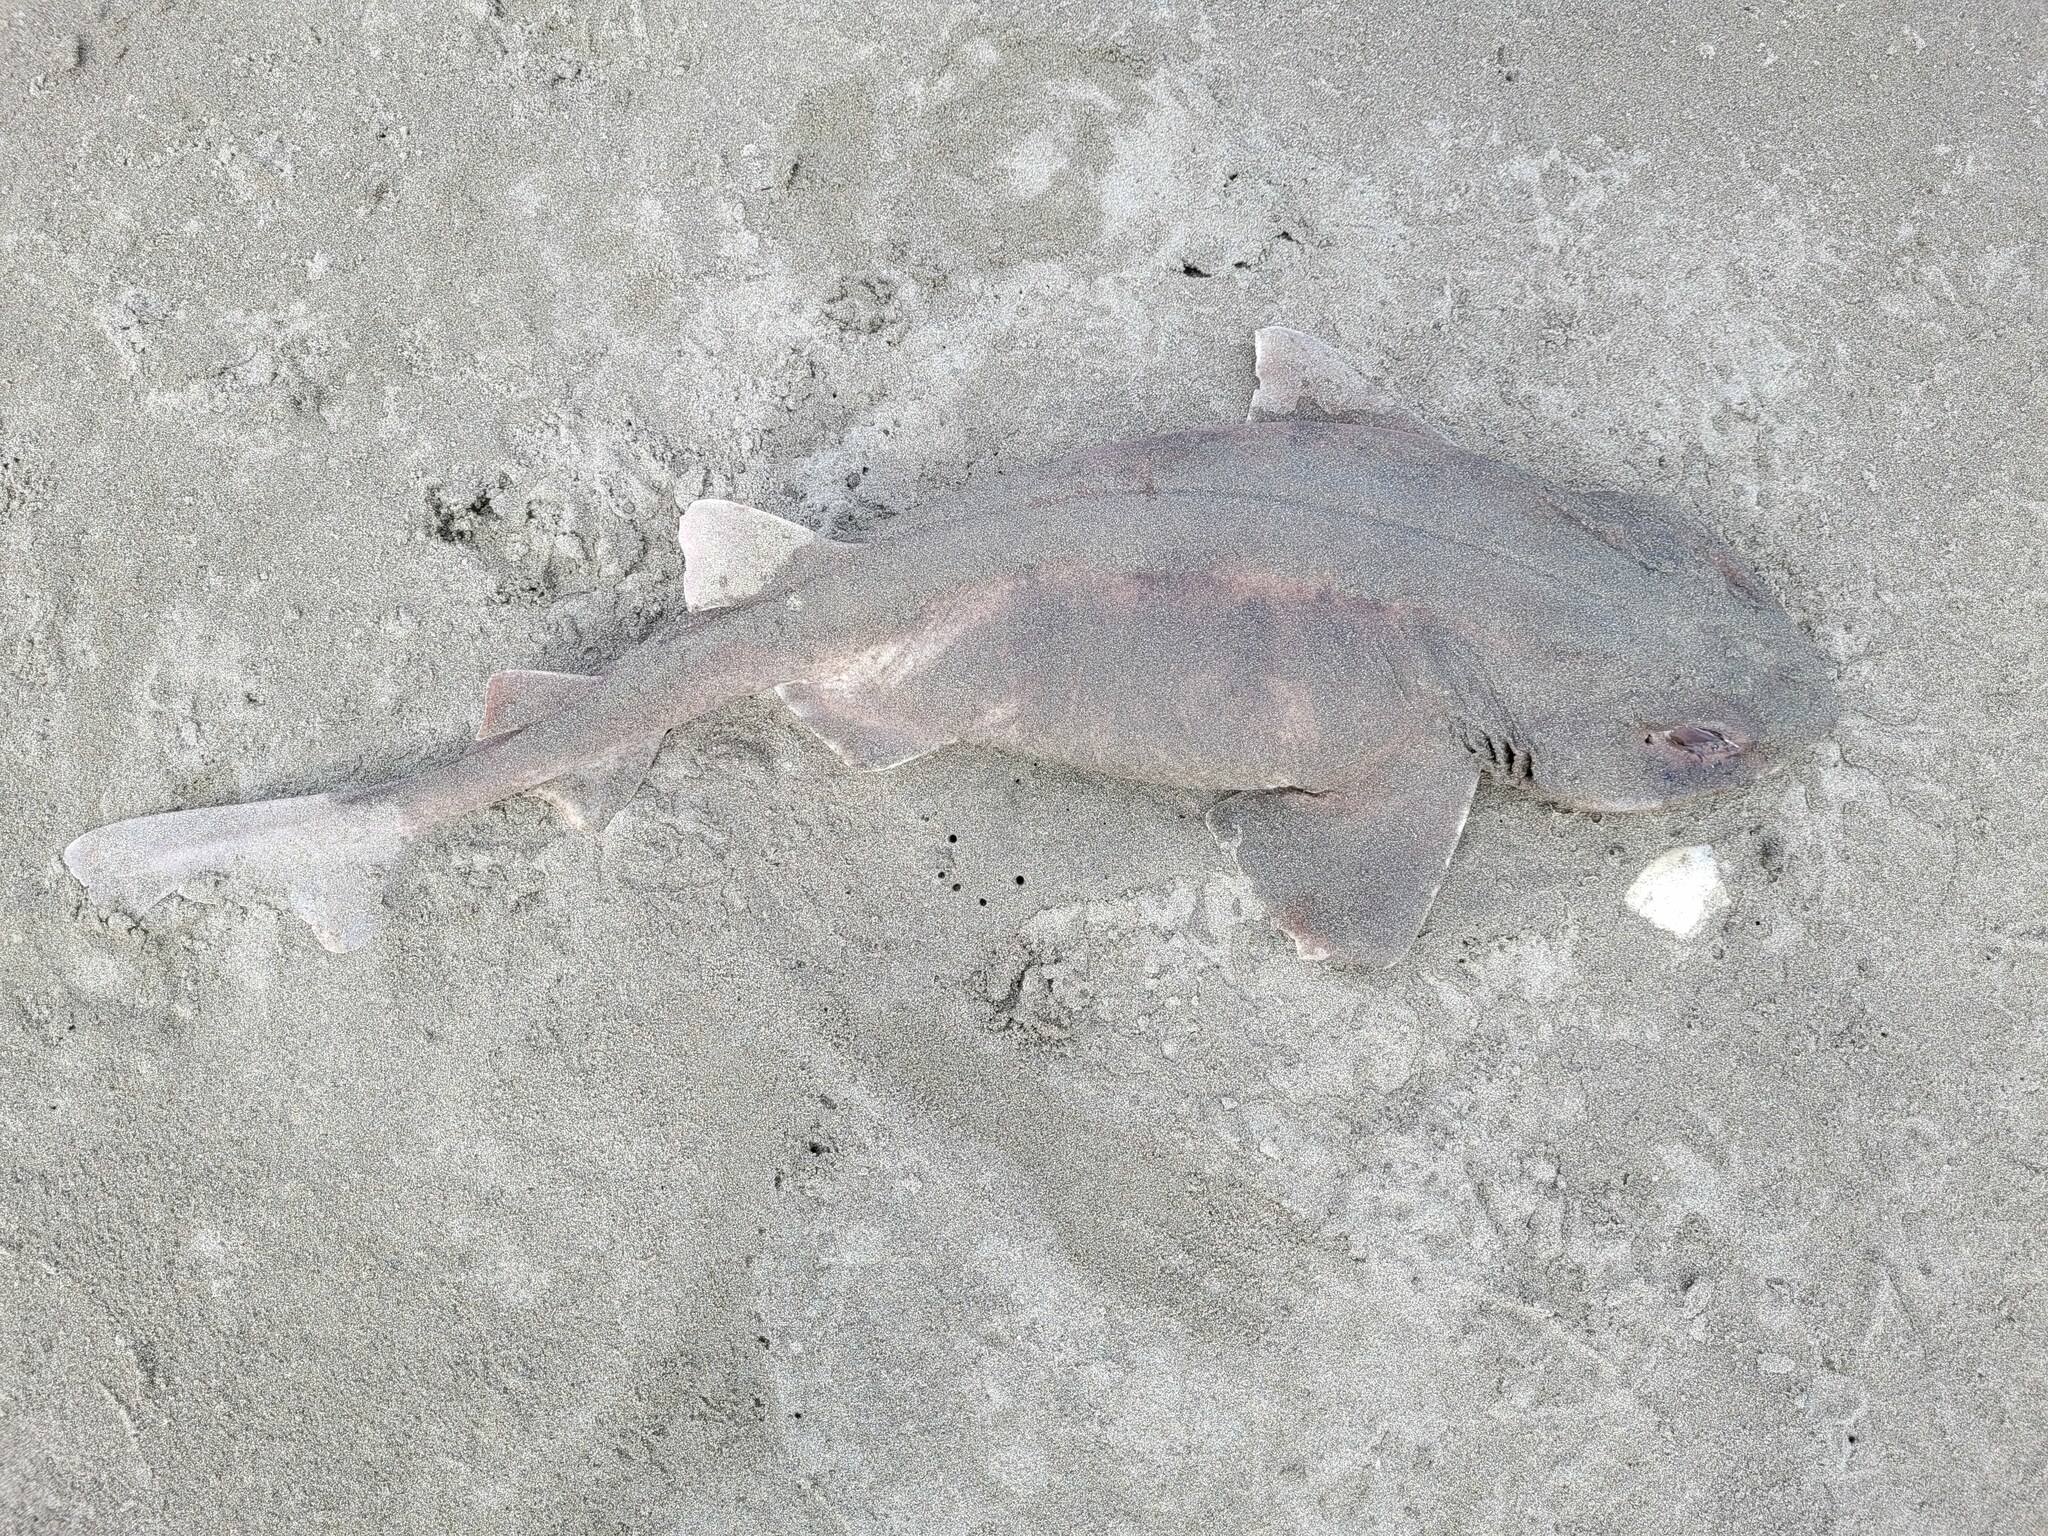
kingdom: Animalia
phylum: Chordata
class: Elasmobranchii
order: Carcharhiniformes
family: Scyliorhinidae
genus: Cephaloscyllium
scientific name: Cephaloscyllium isabellum
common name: Carpet shark
